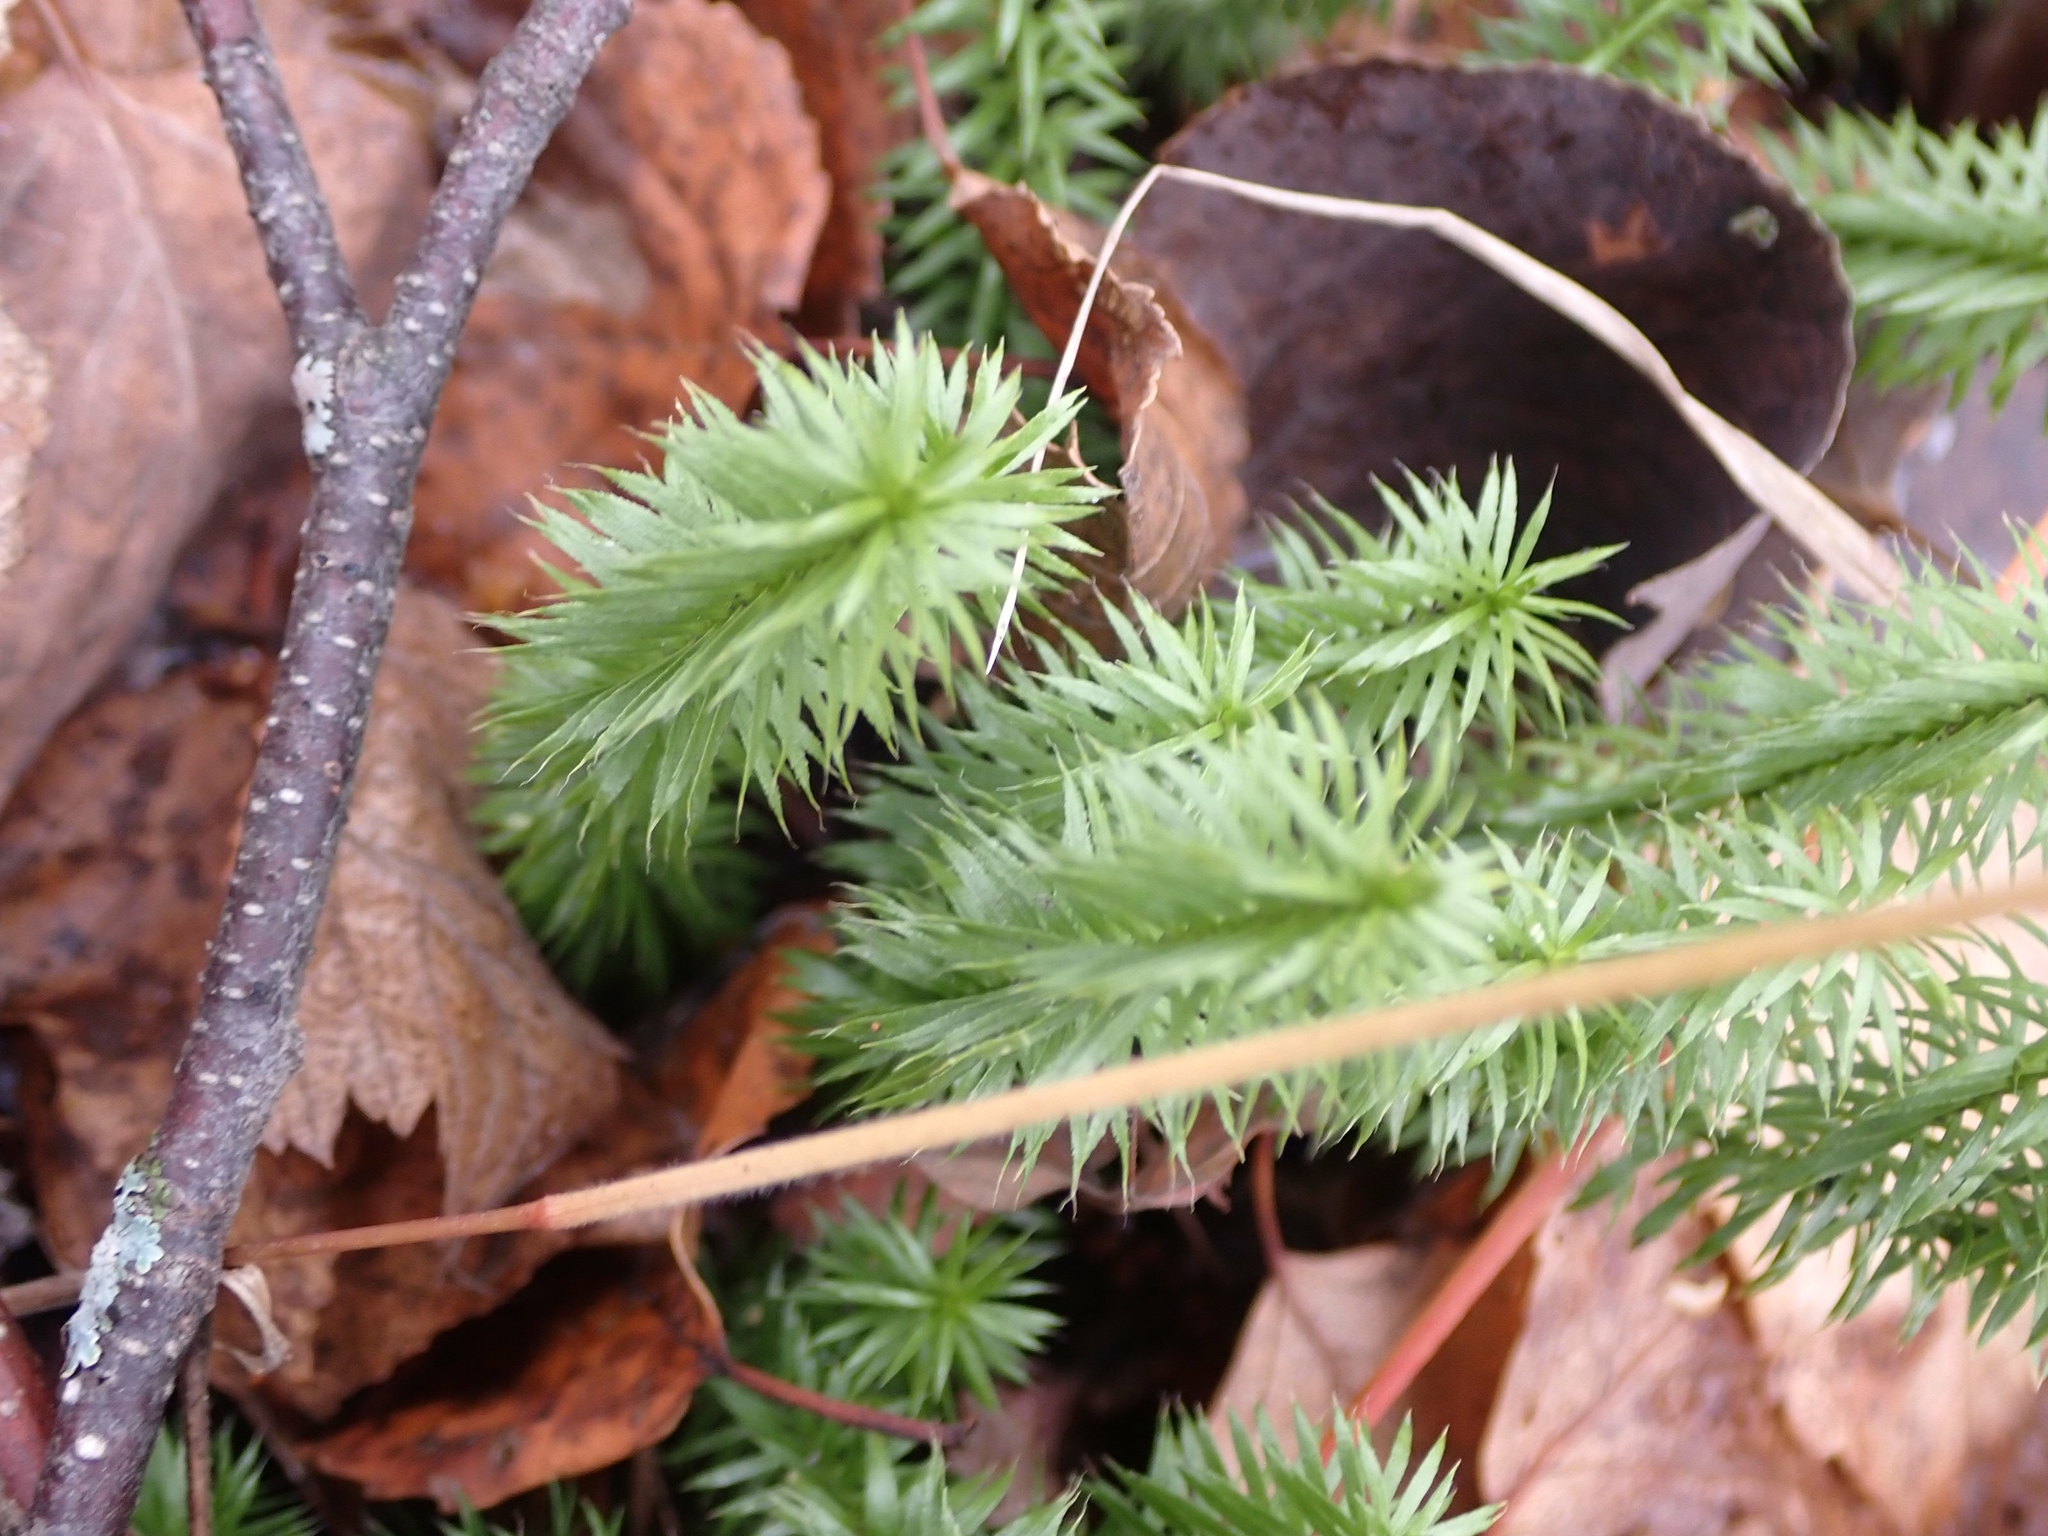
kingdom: Plantae
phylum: Tracheophyta
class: Lycopodiopsida
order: Lycopodiales
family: Lycopodiaceae
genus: Spinulum
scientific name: Spinulum annotinum
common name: Interrupted club-moss
